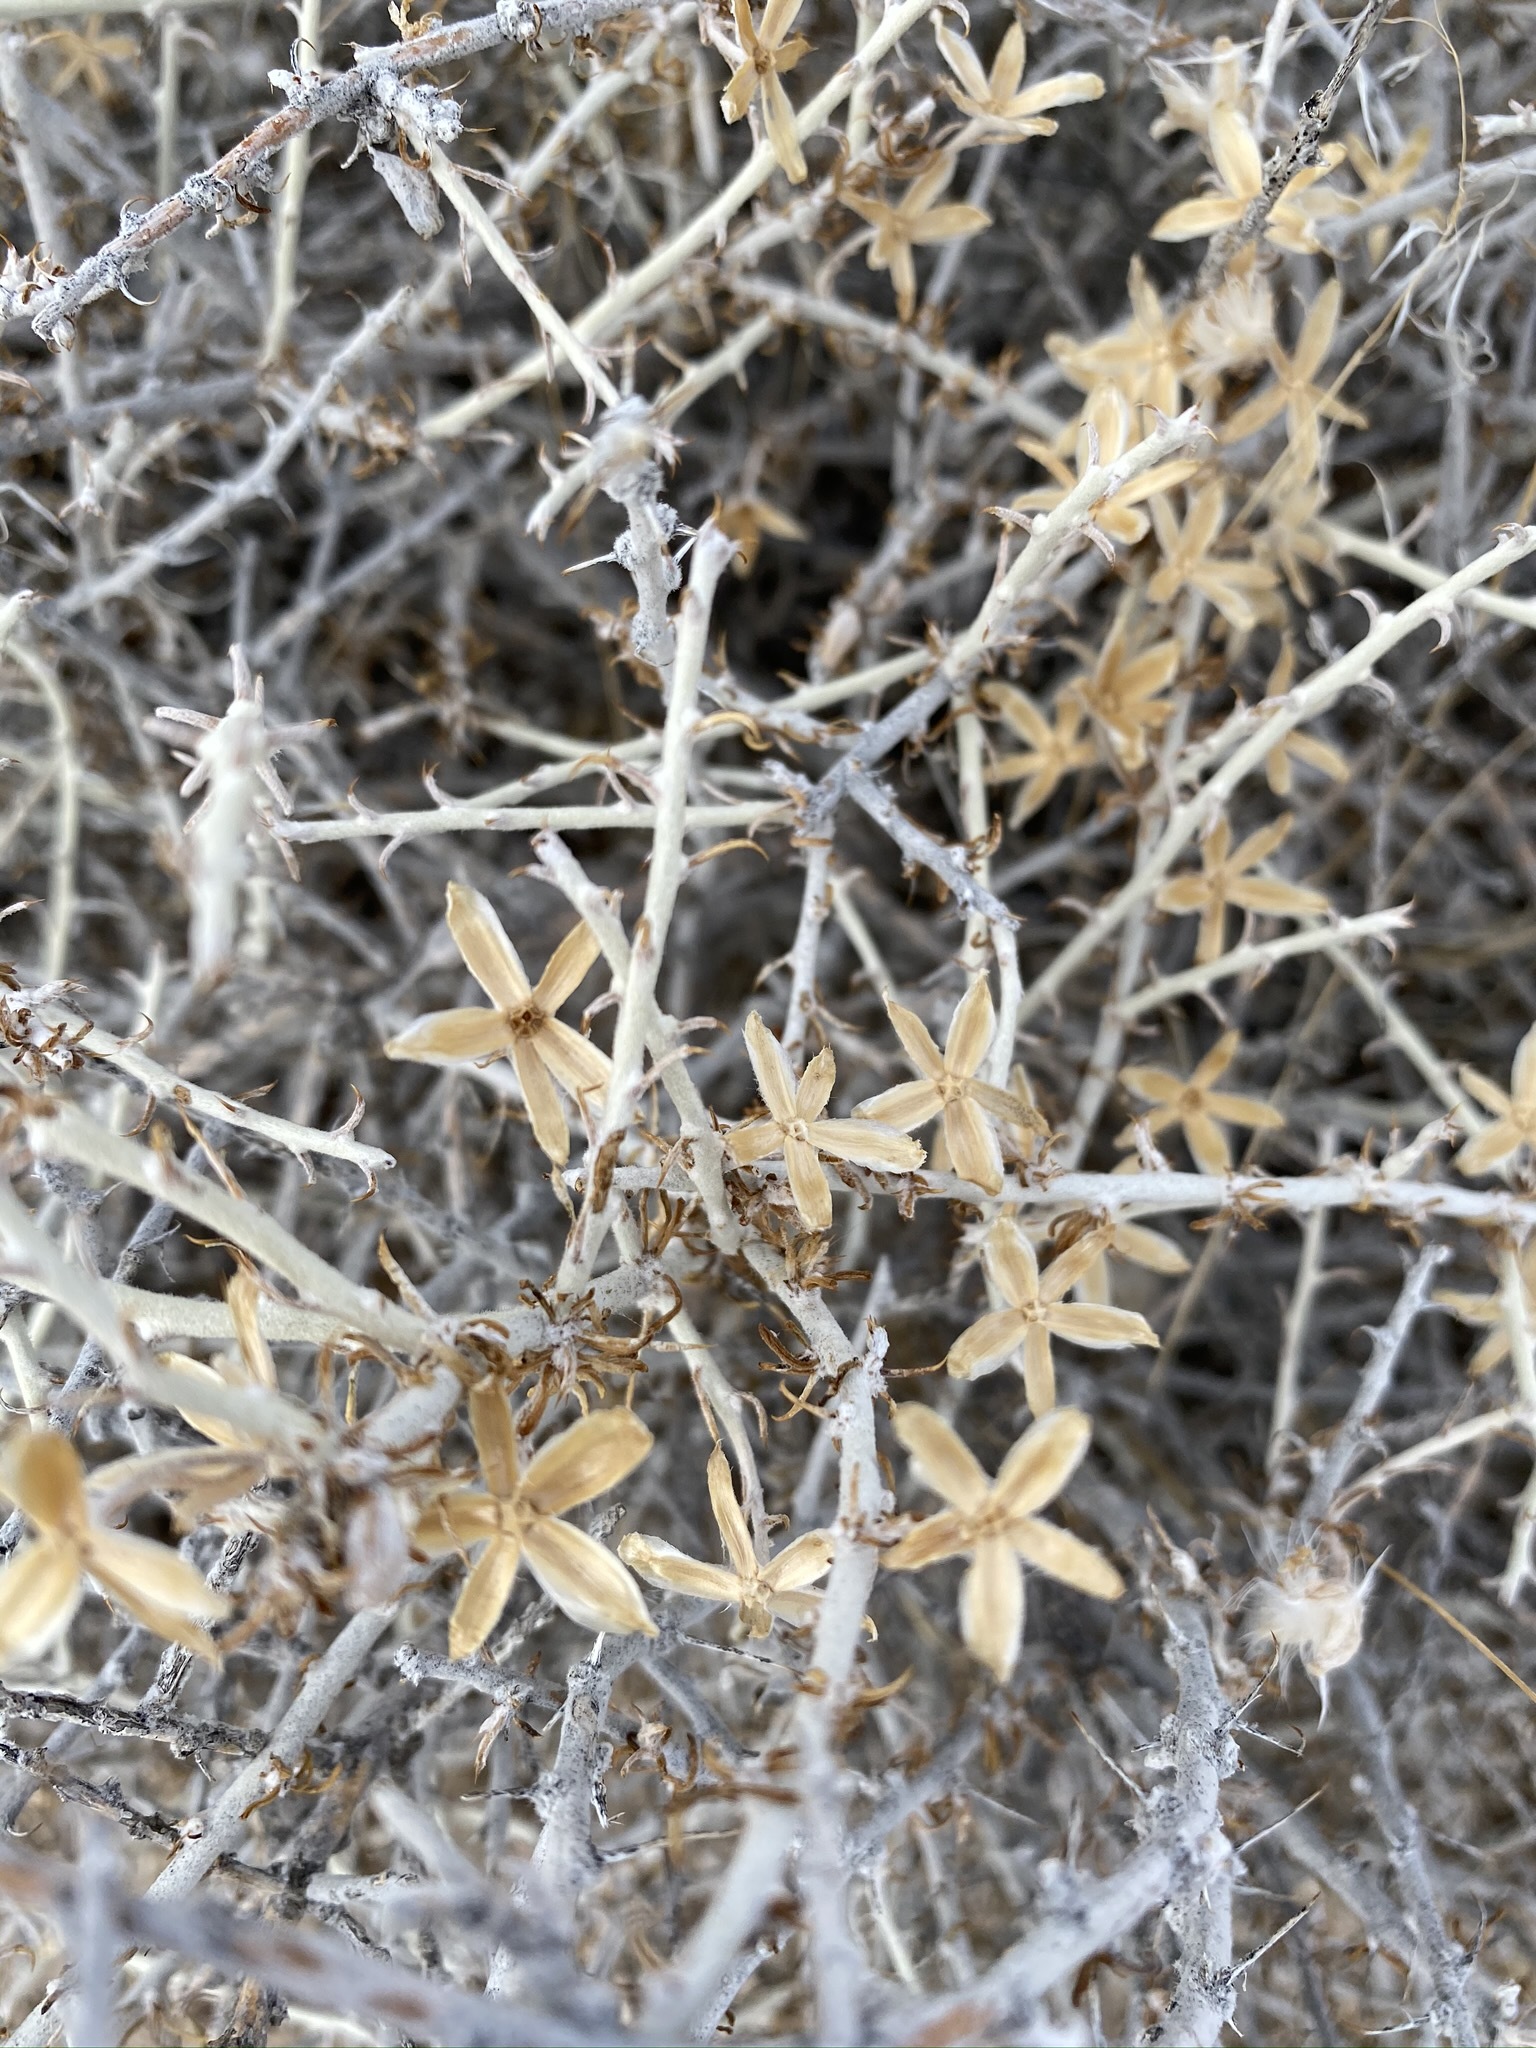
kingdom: Plantae
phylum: Tracheophyta
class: Magnoliopsida
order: Asterales
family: Asteraceae
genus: Tetradymia
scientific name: Tetradymia spinosa
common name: Thorny horsebrush
